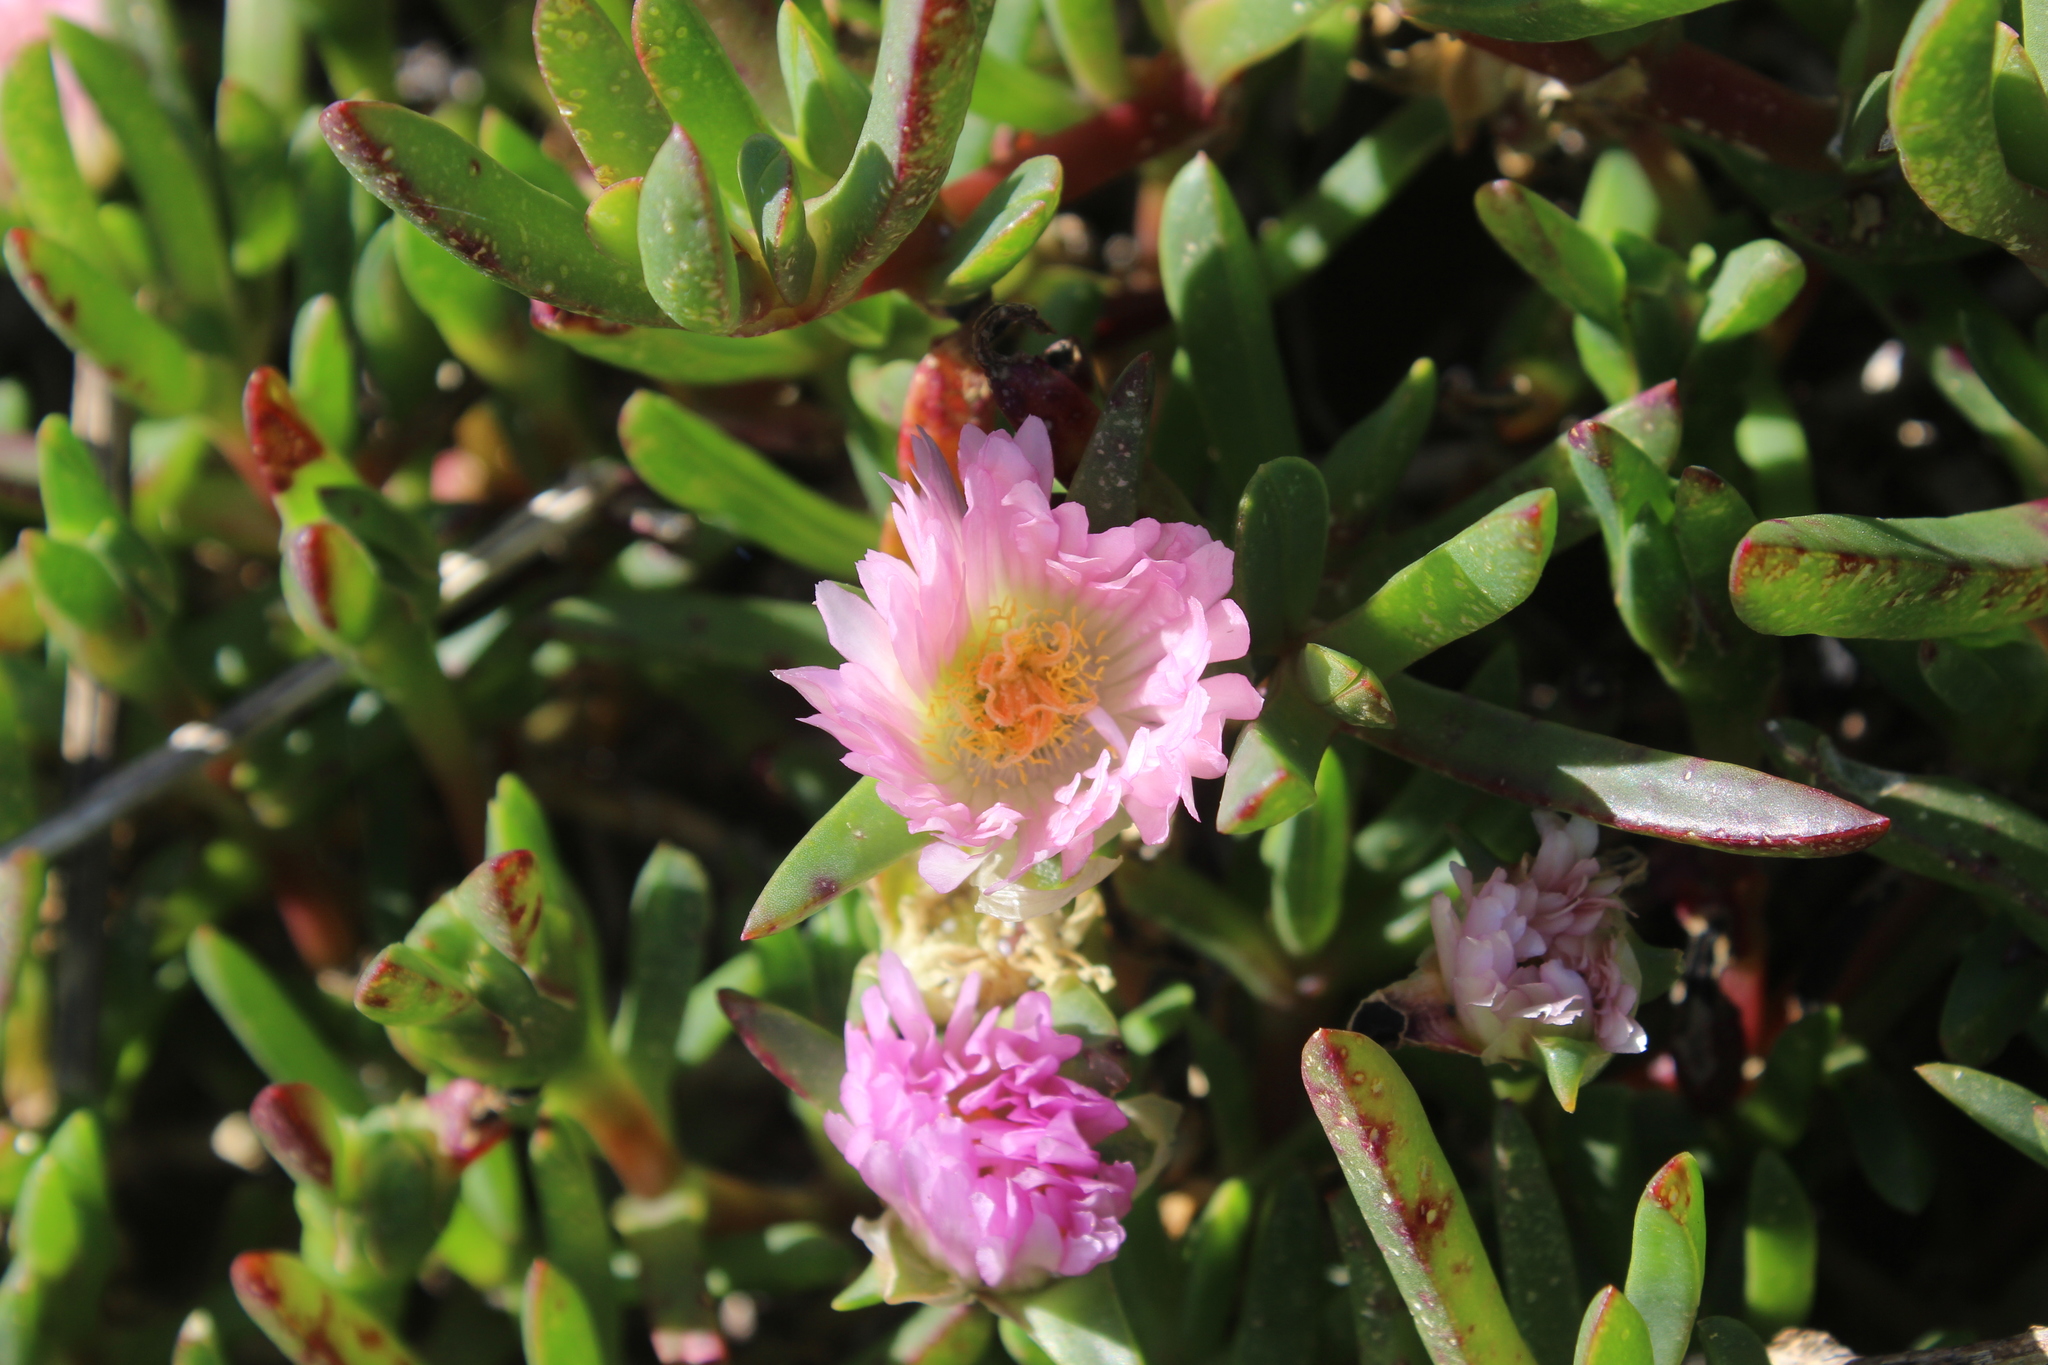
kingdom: Plantae
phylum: Tracheophyta
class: Magnoliopsida
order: Caryophyllales
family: Aizoaceae
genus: Disphyma
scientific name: Disphyma australe
